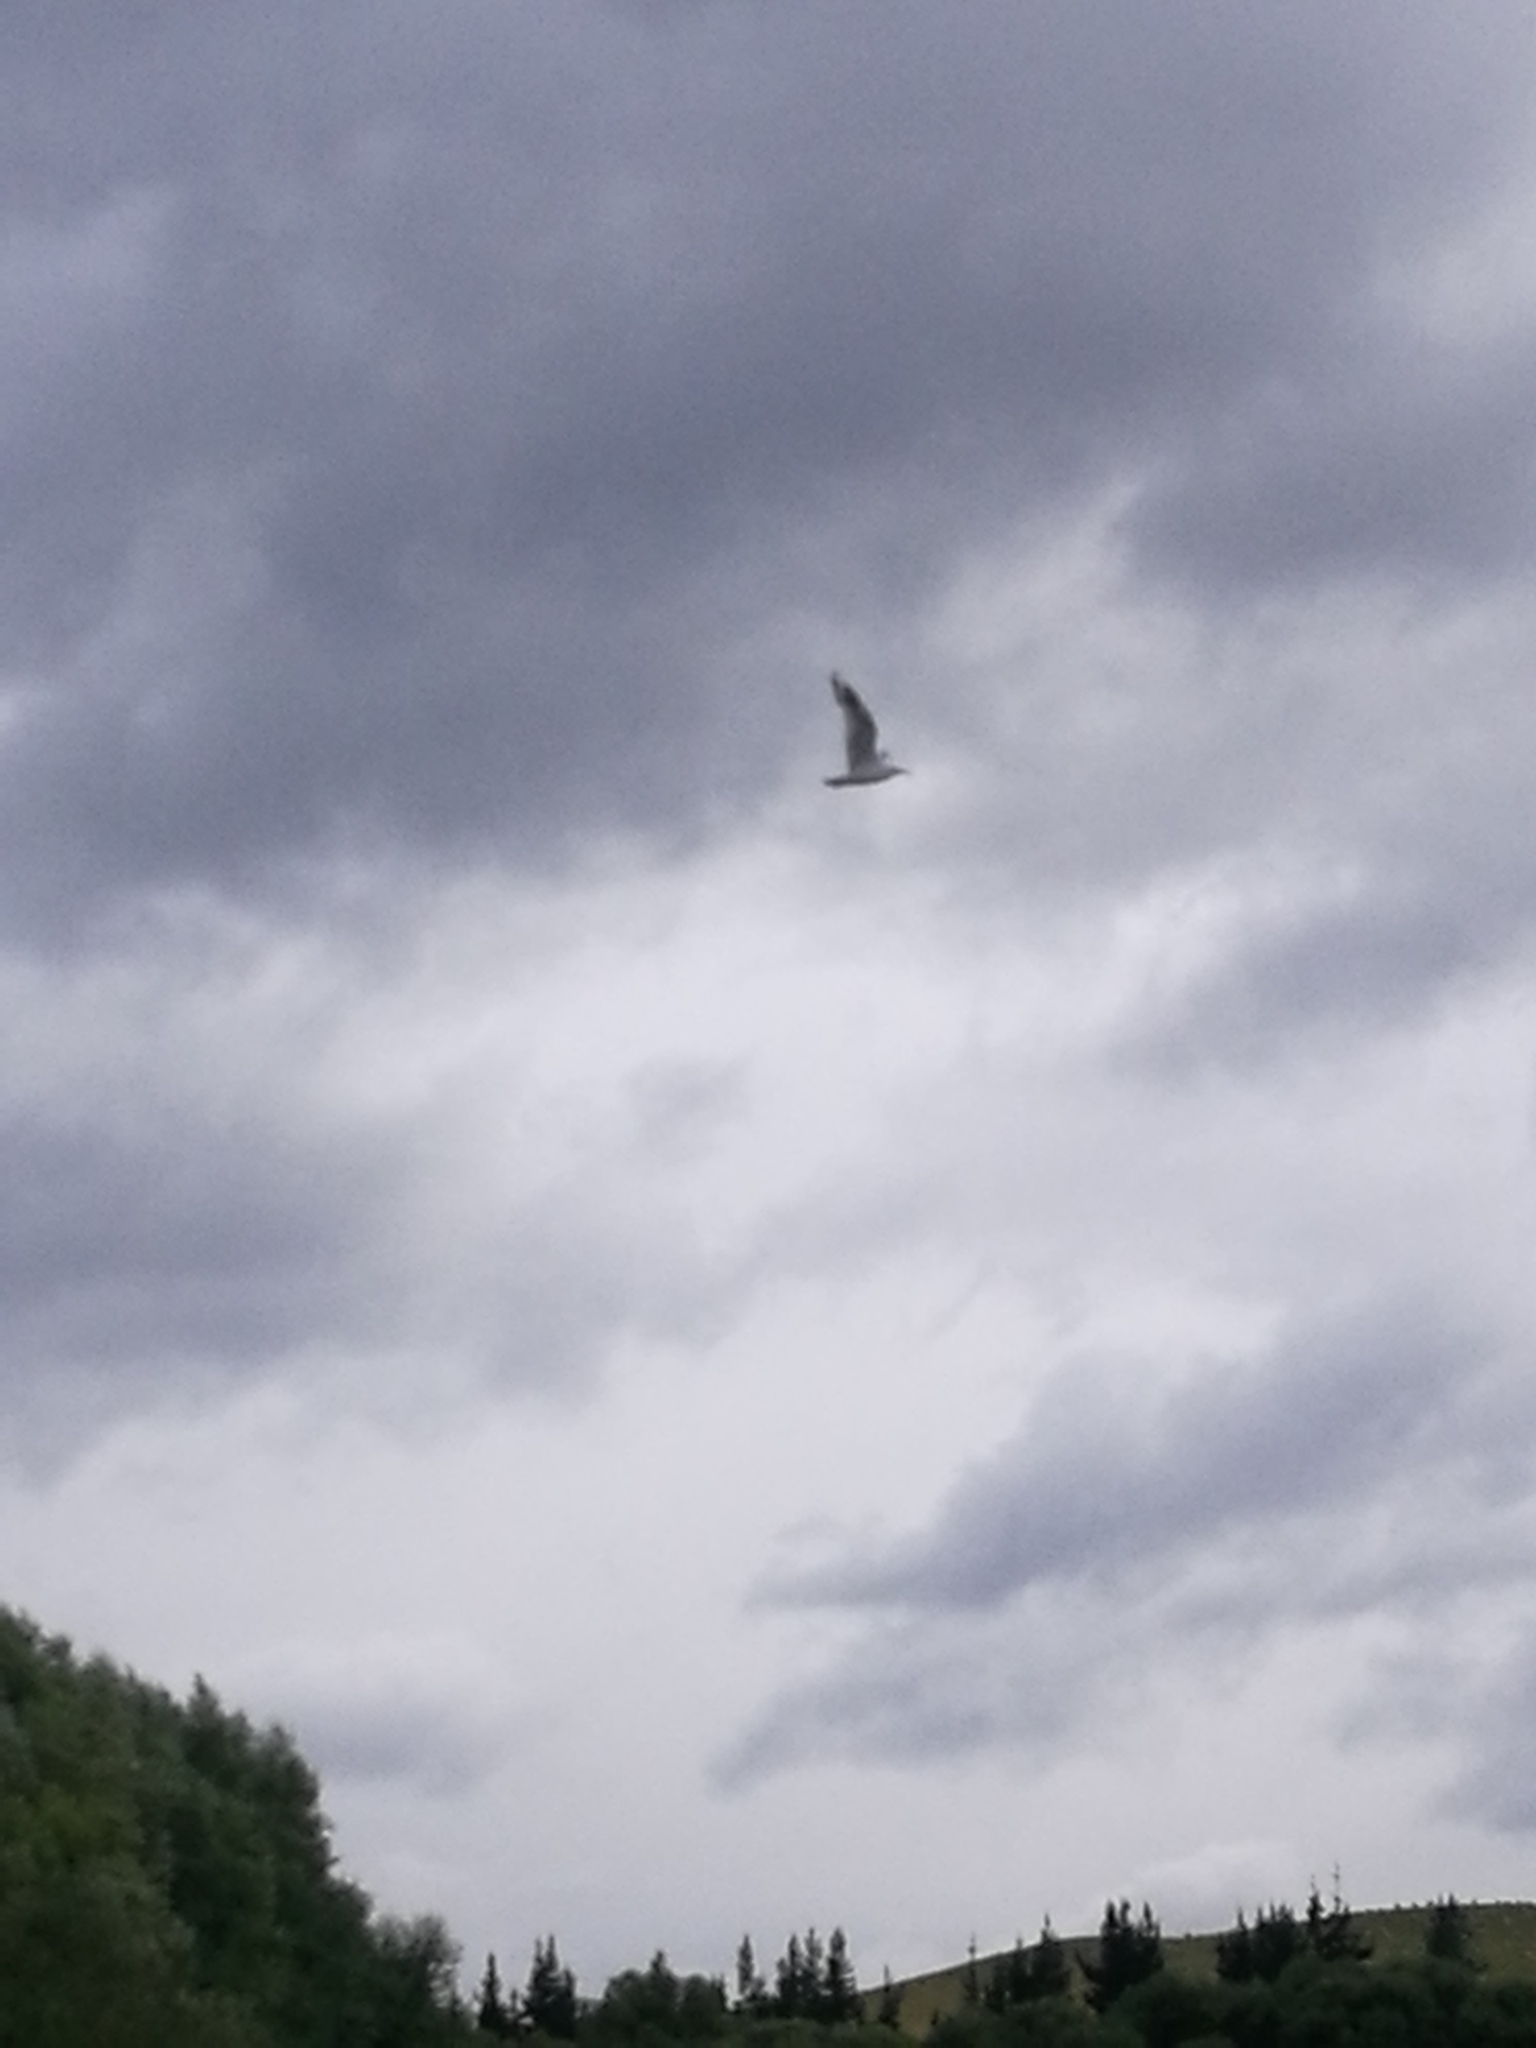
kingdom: Animalia
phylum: Chordata
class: Aves
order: Charadriiformes
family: Laridae
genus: Larus
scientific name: Larus dominicanus
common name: Kelp gull
